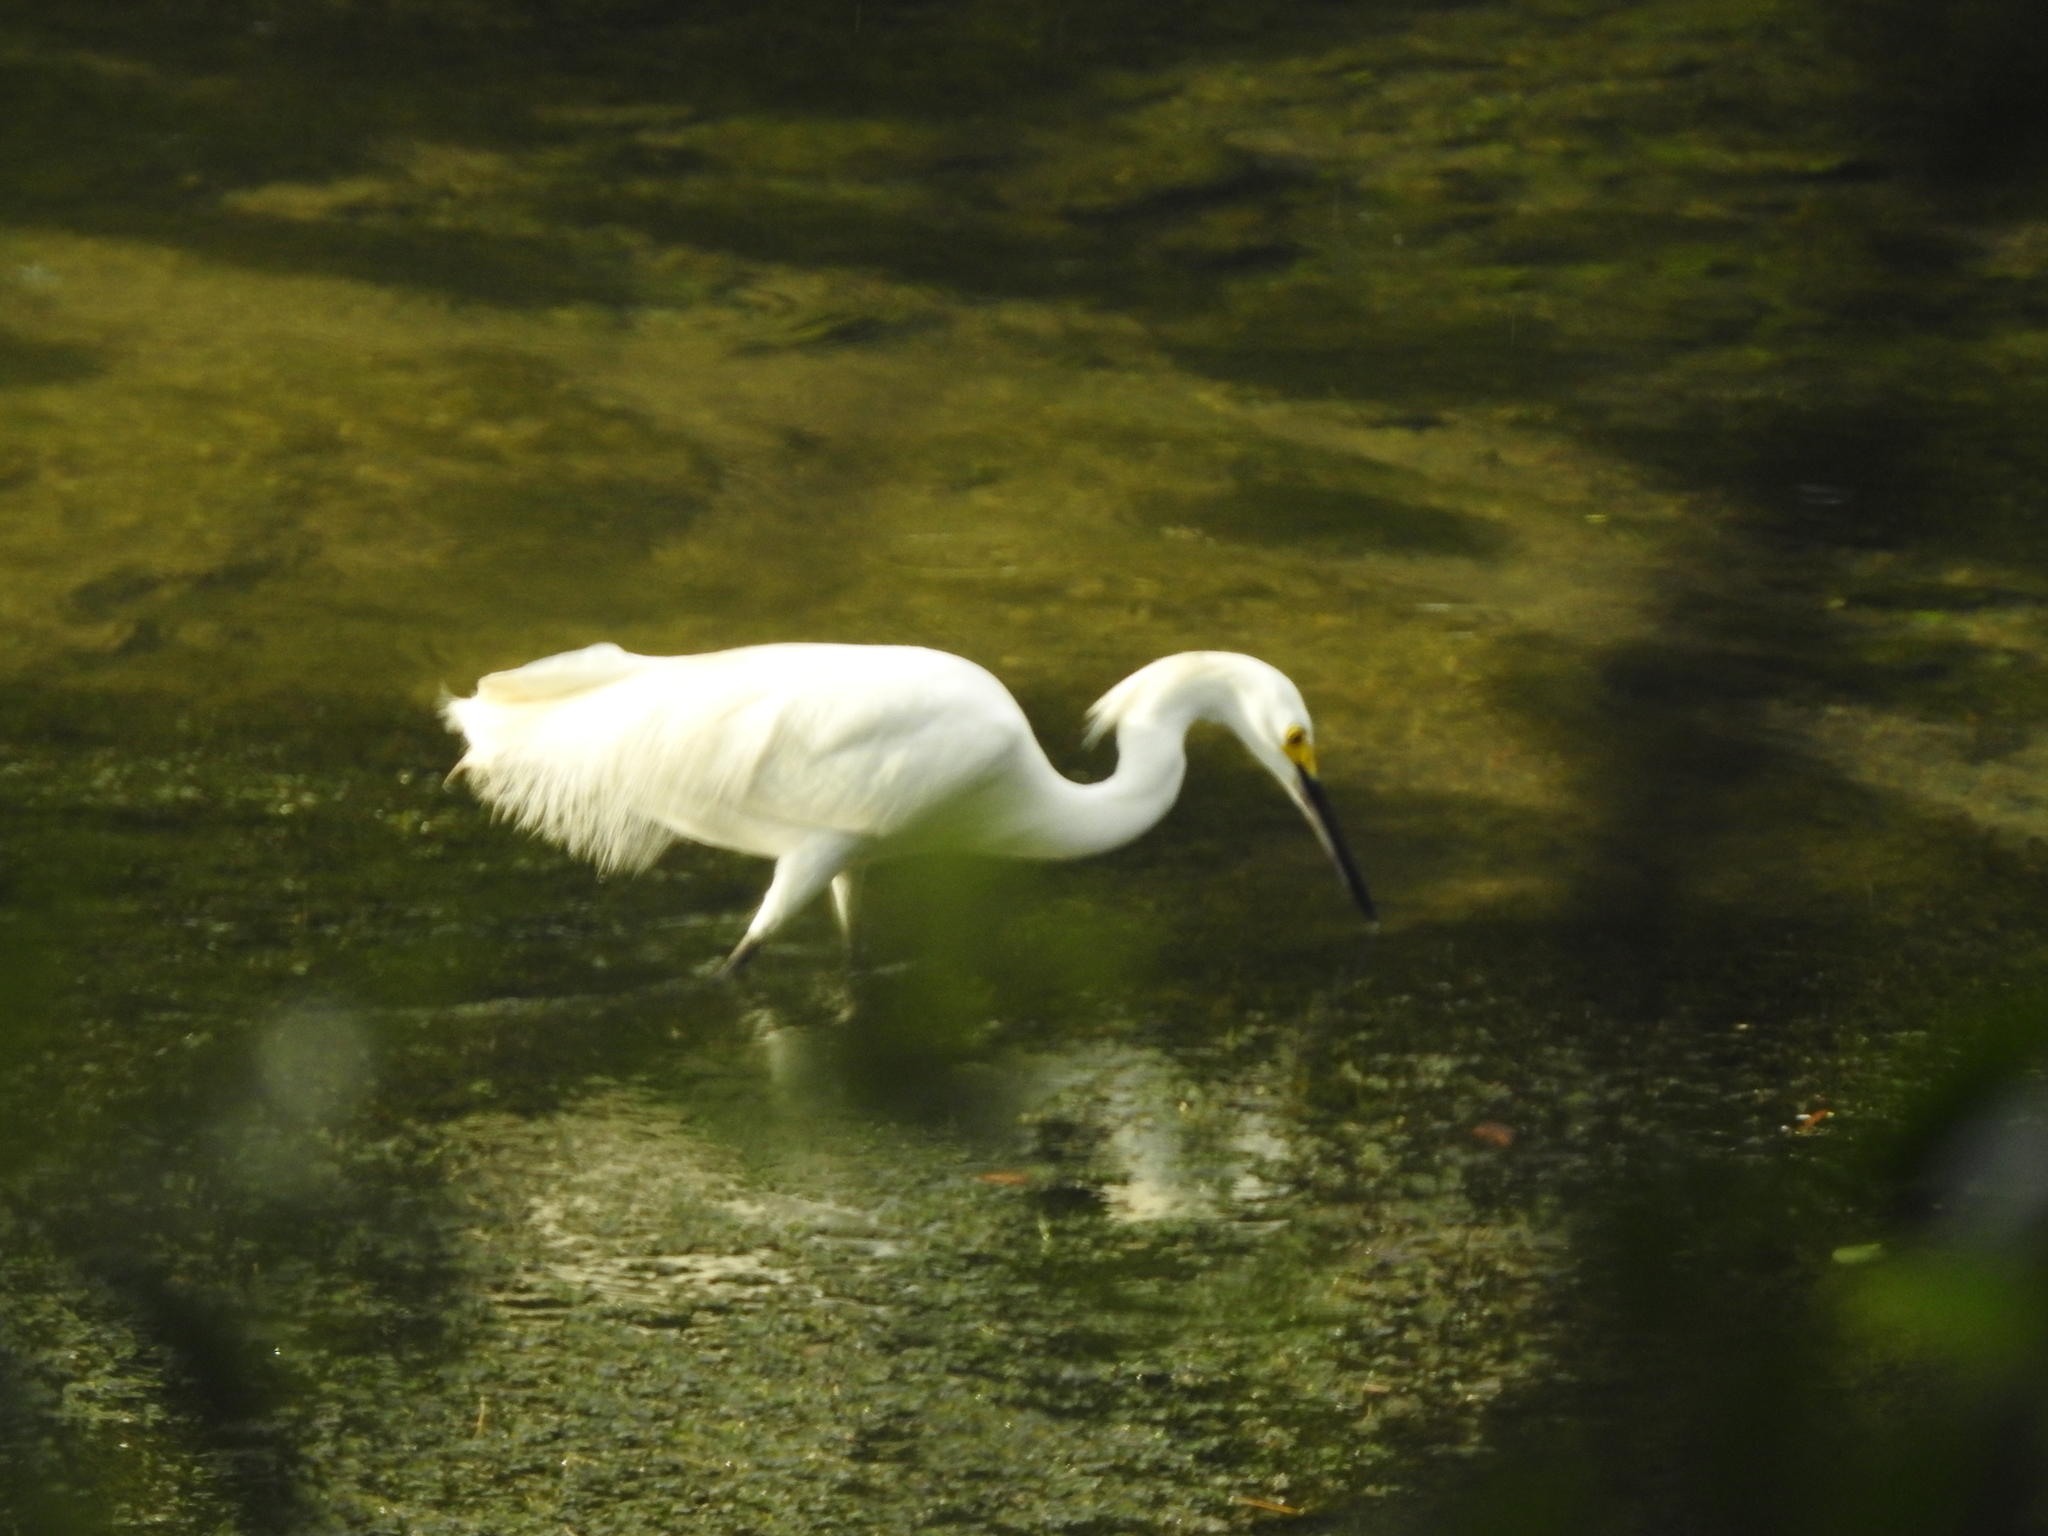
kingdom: Animalia
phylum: Chordata
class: Aves
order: Pelecaniformes
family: Ardeidae
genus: Egretta
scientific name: Egretta thula
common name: Snowy egret
